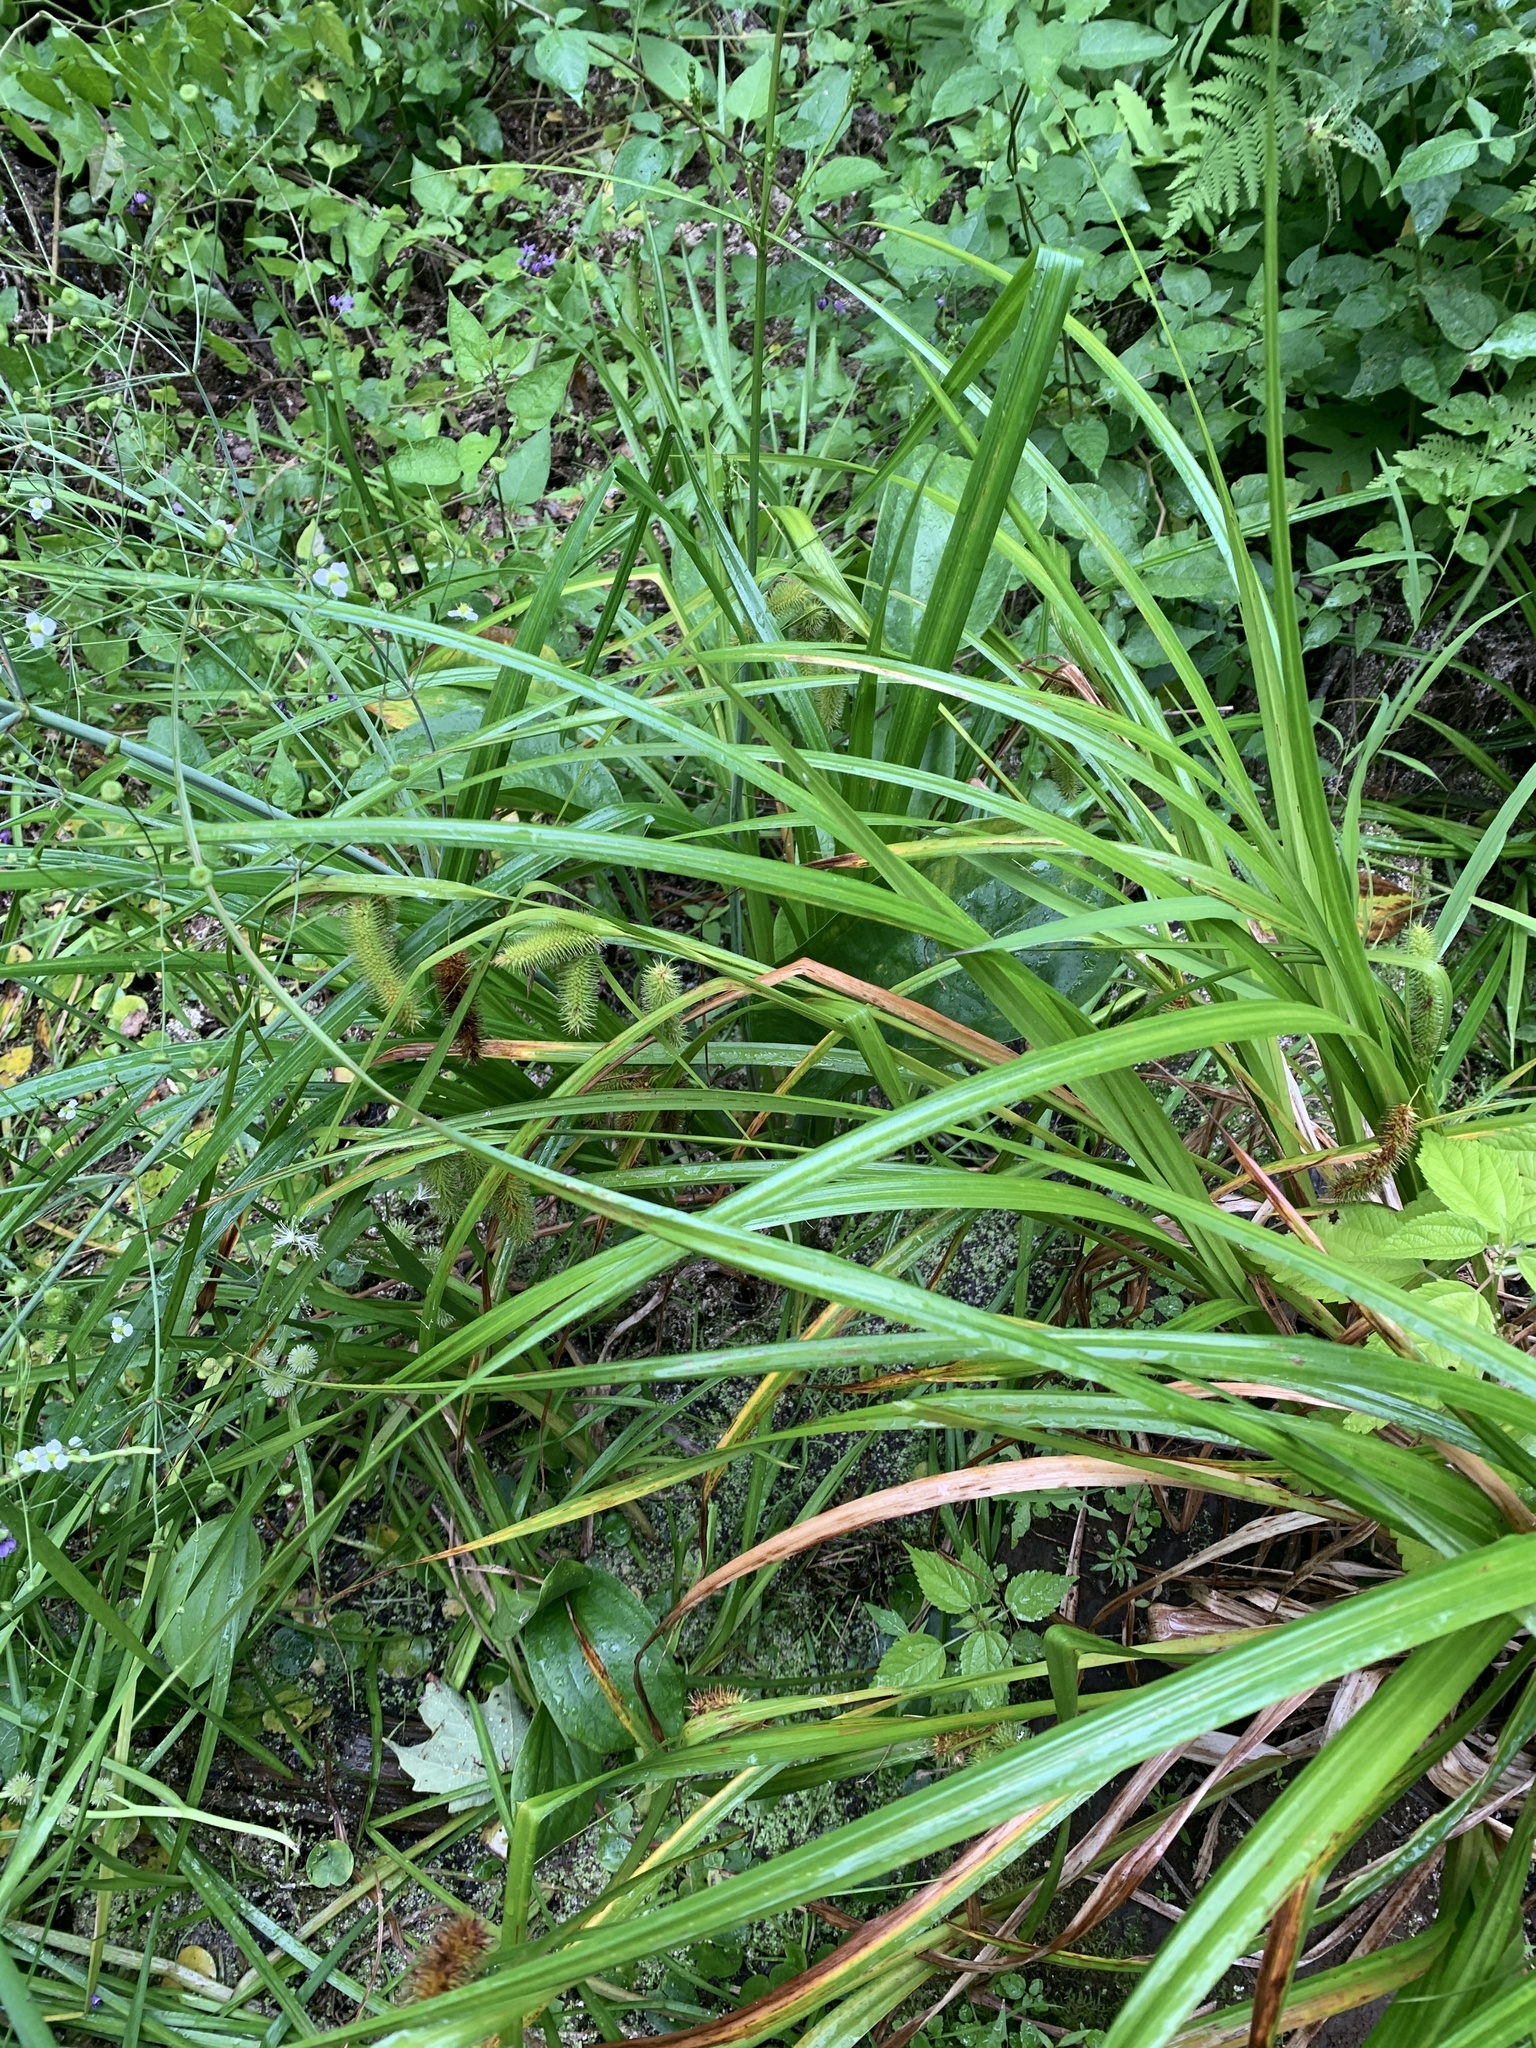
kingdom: Plantae
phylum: Tracheophyta
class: Liliopsida
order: Poales
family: Cyperaceae
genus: Carex
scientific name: Carex comosa
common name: Bristly sedge
